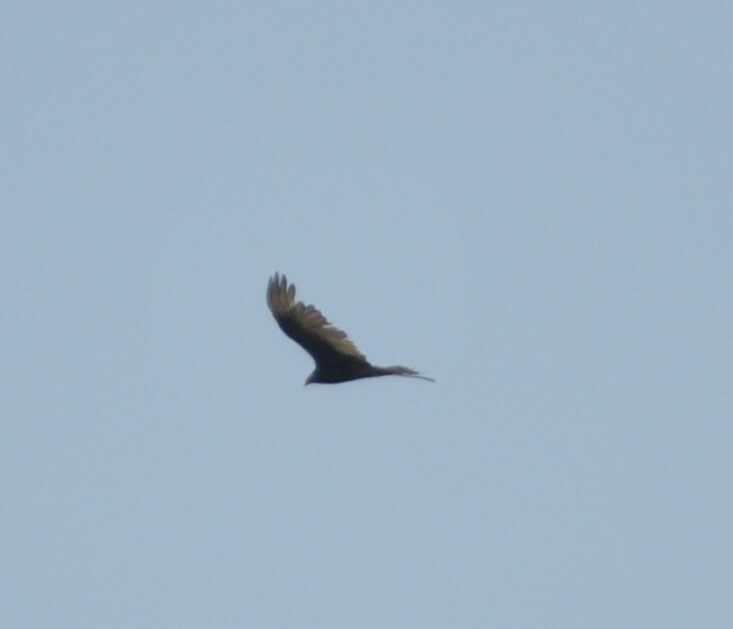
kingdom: Animalia
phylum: Chordata
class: Aves
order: Accipitriformes
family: Cathartidae
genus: Cathartes
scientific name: Cathartes aura
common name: Turkey vulture
